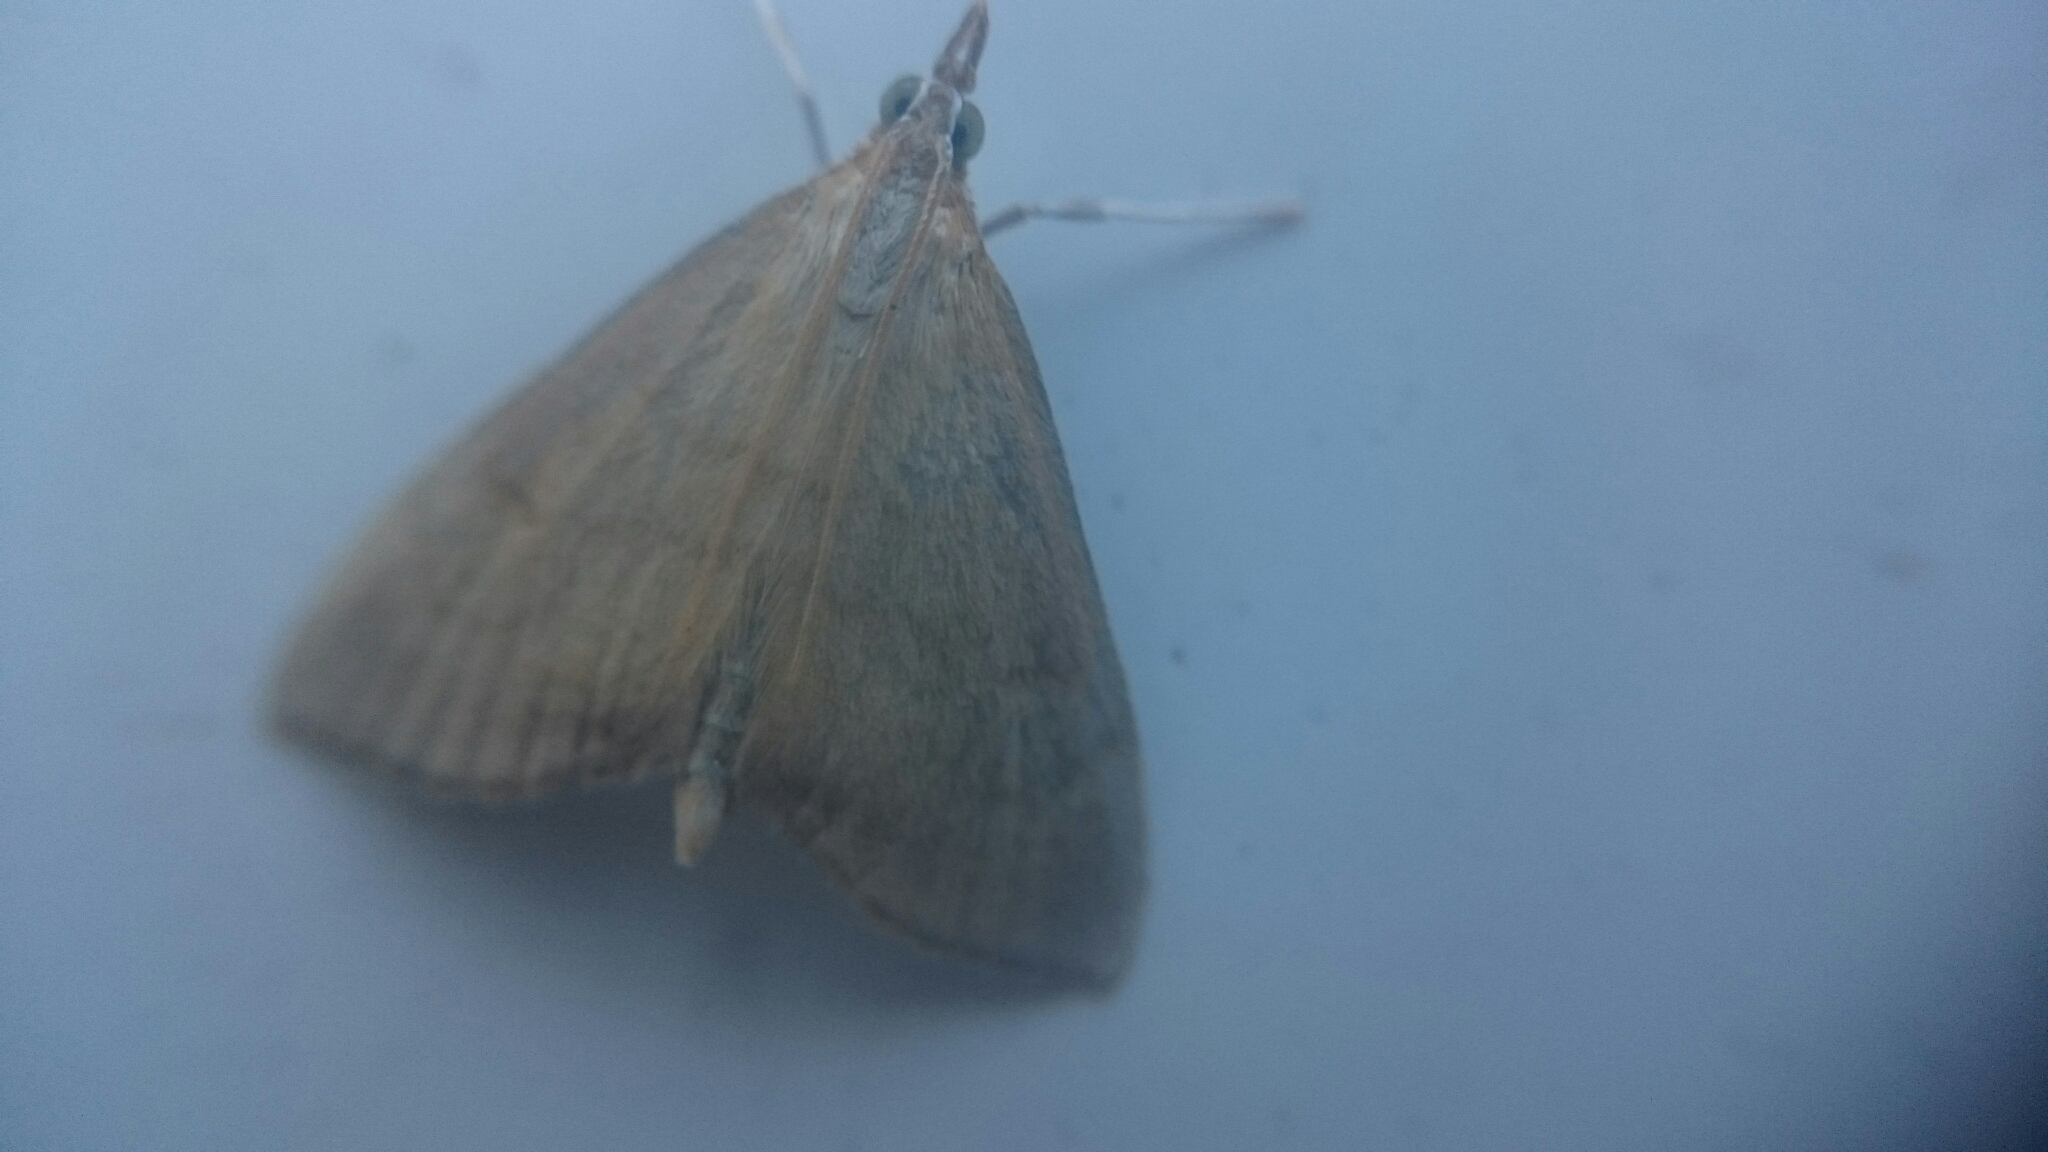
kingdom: Animalia
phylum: Arthropoda
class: Insecta
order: Lepidoptera
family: Crambidae
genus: Anania
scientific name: Anania crocealis
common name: Ochreous pearl
